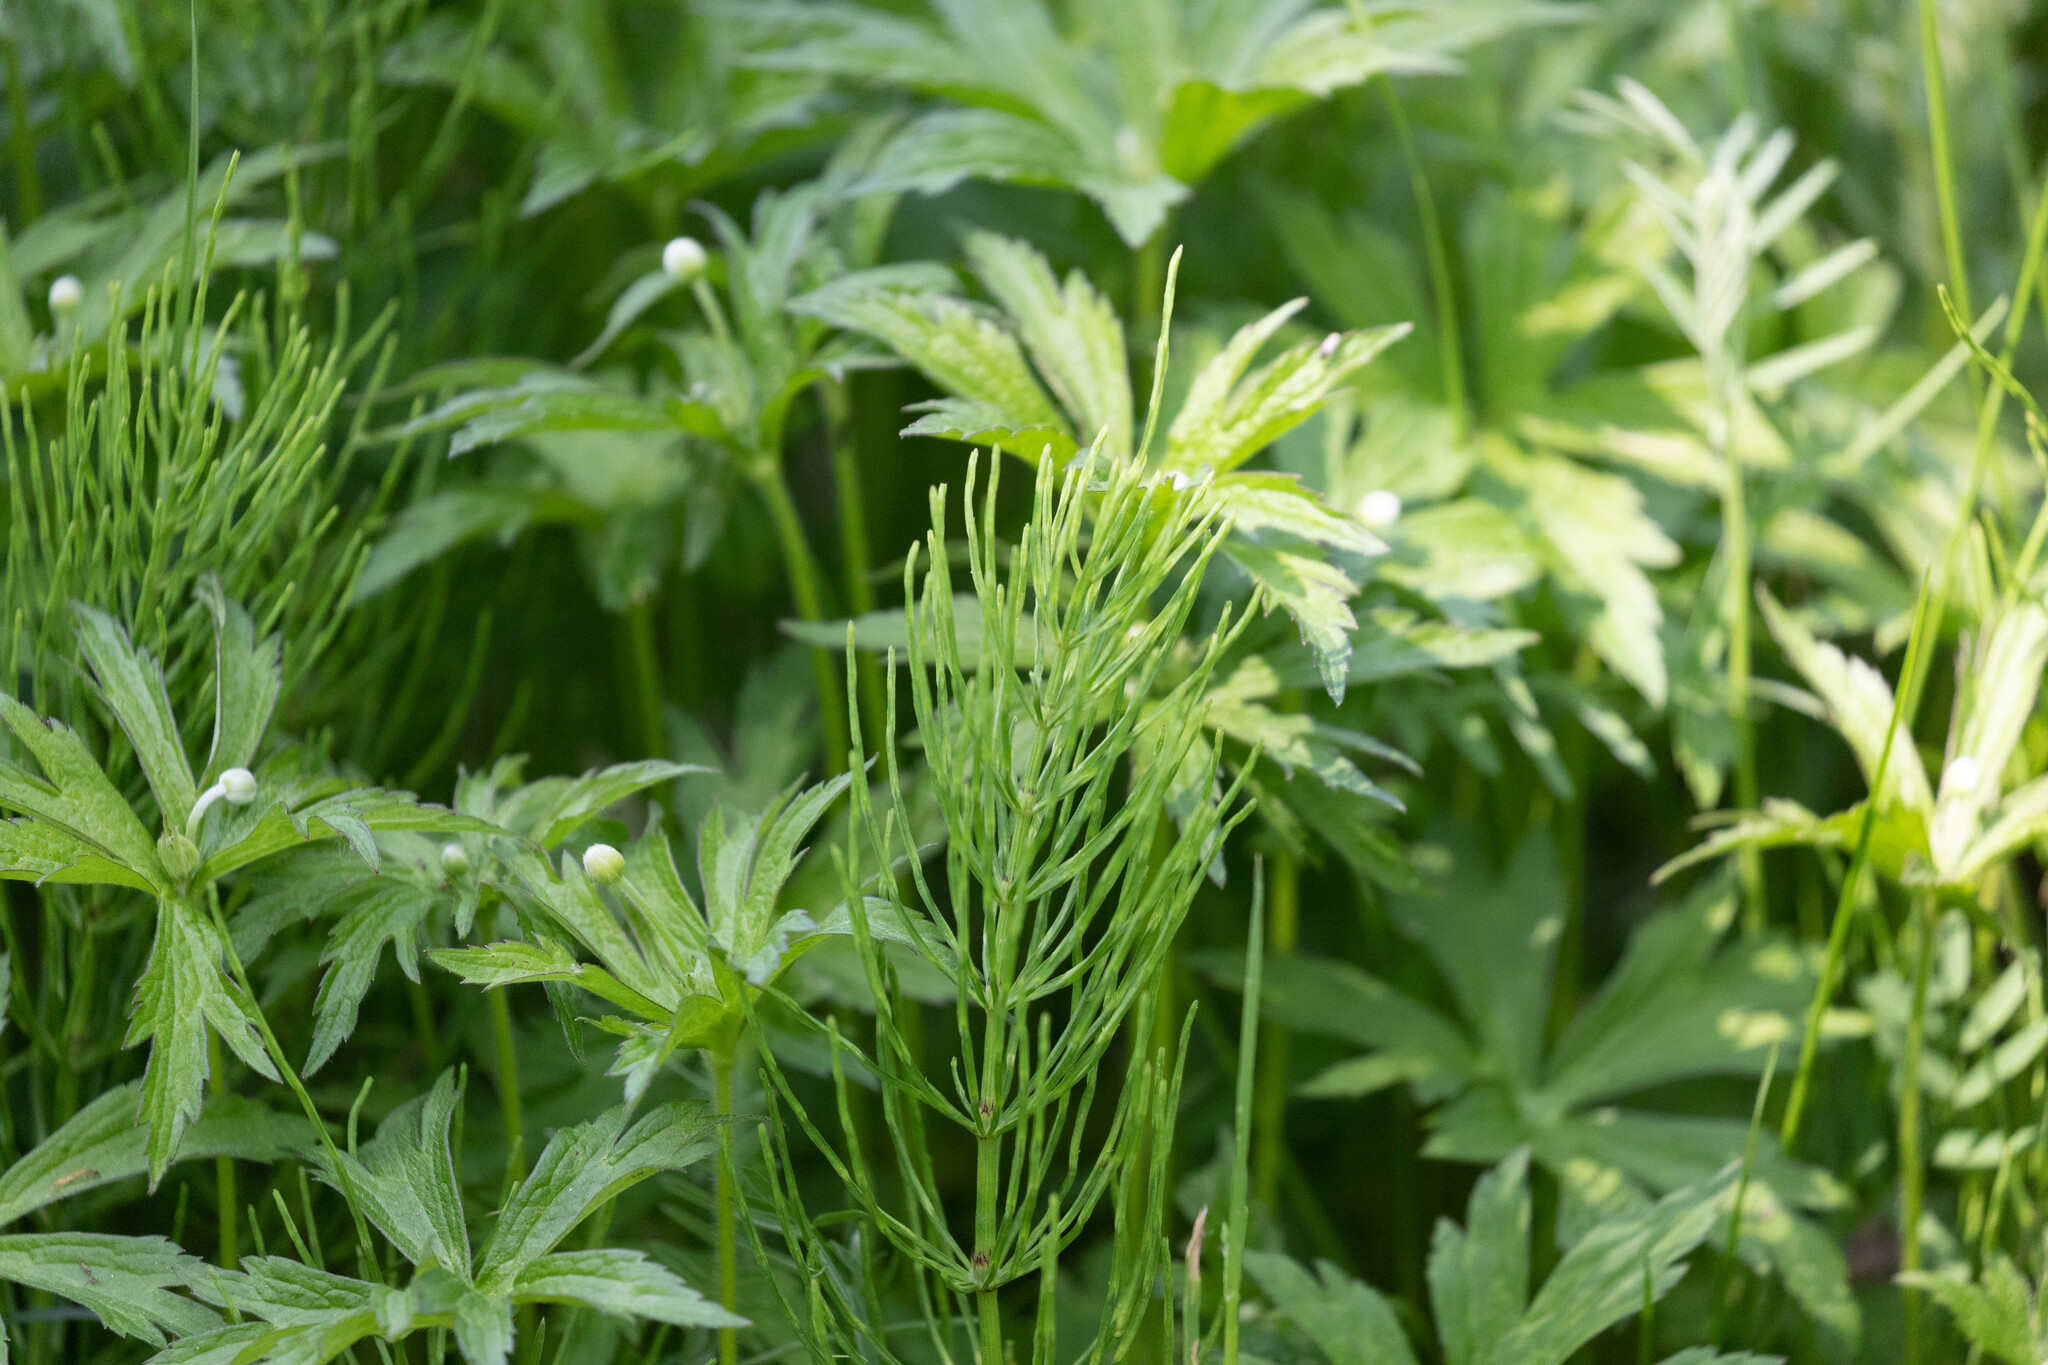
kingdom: Plantae
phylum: Tracheophyta
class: Polypodiopsida
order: Equisetales
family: Equisetaceae
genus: Equisetum
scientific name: Equisetum arvense
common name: Field horsetail
